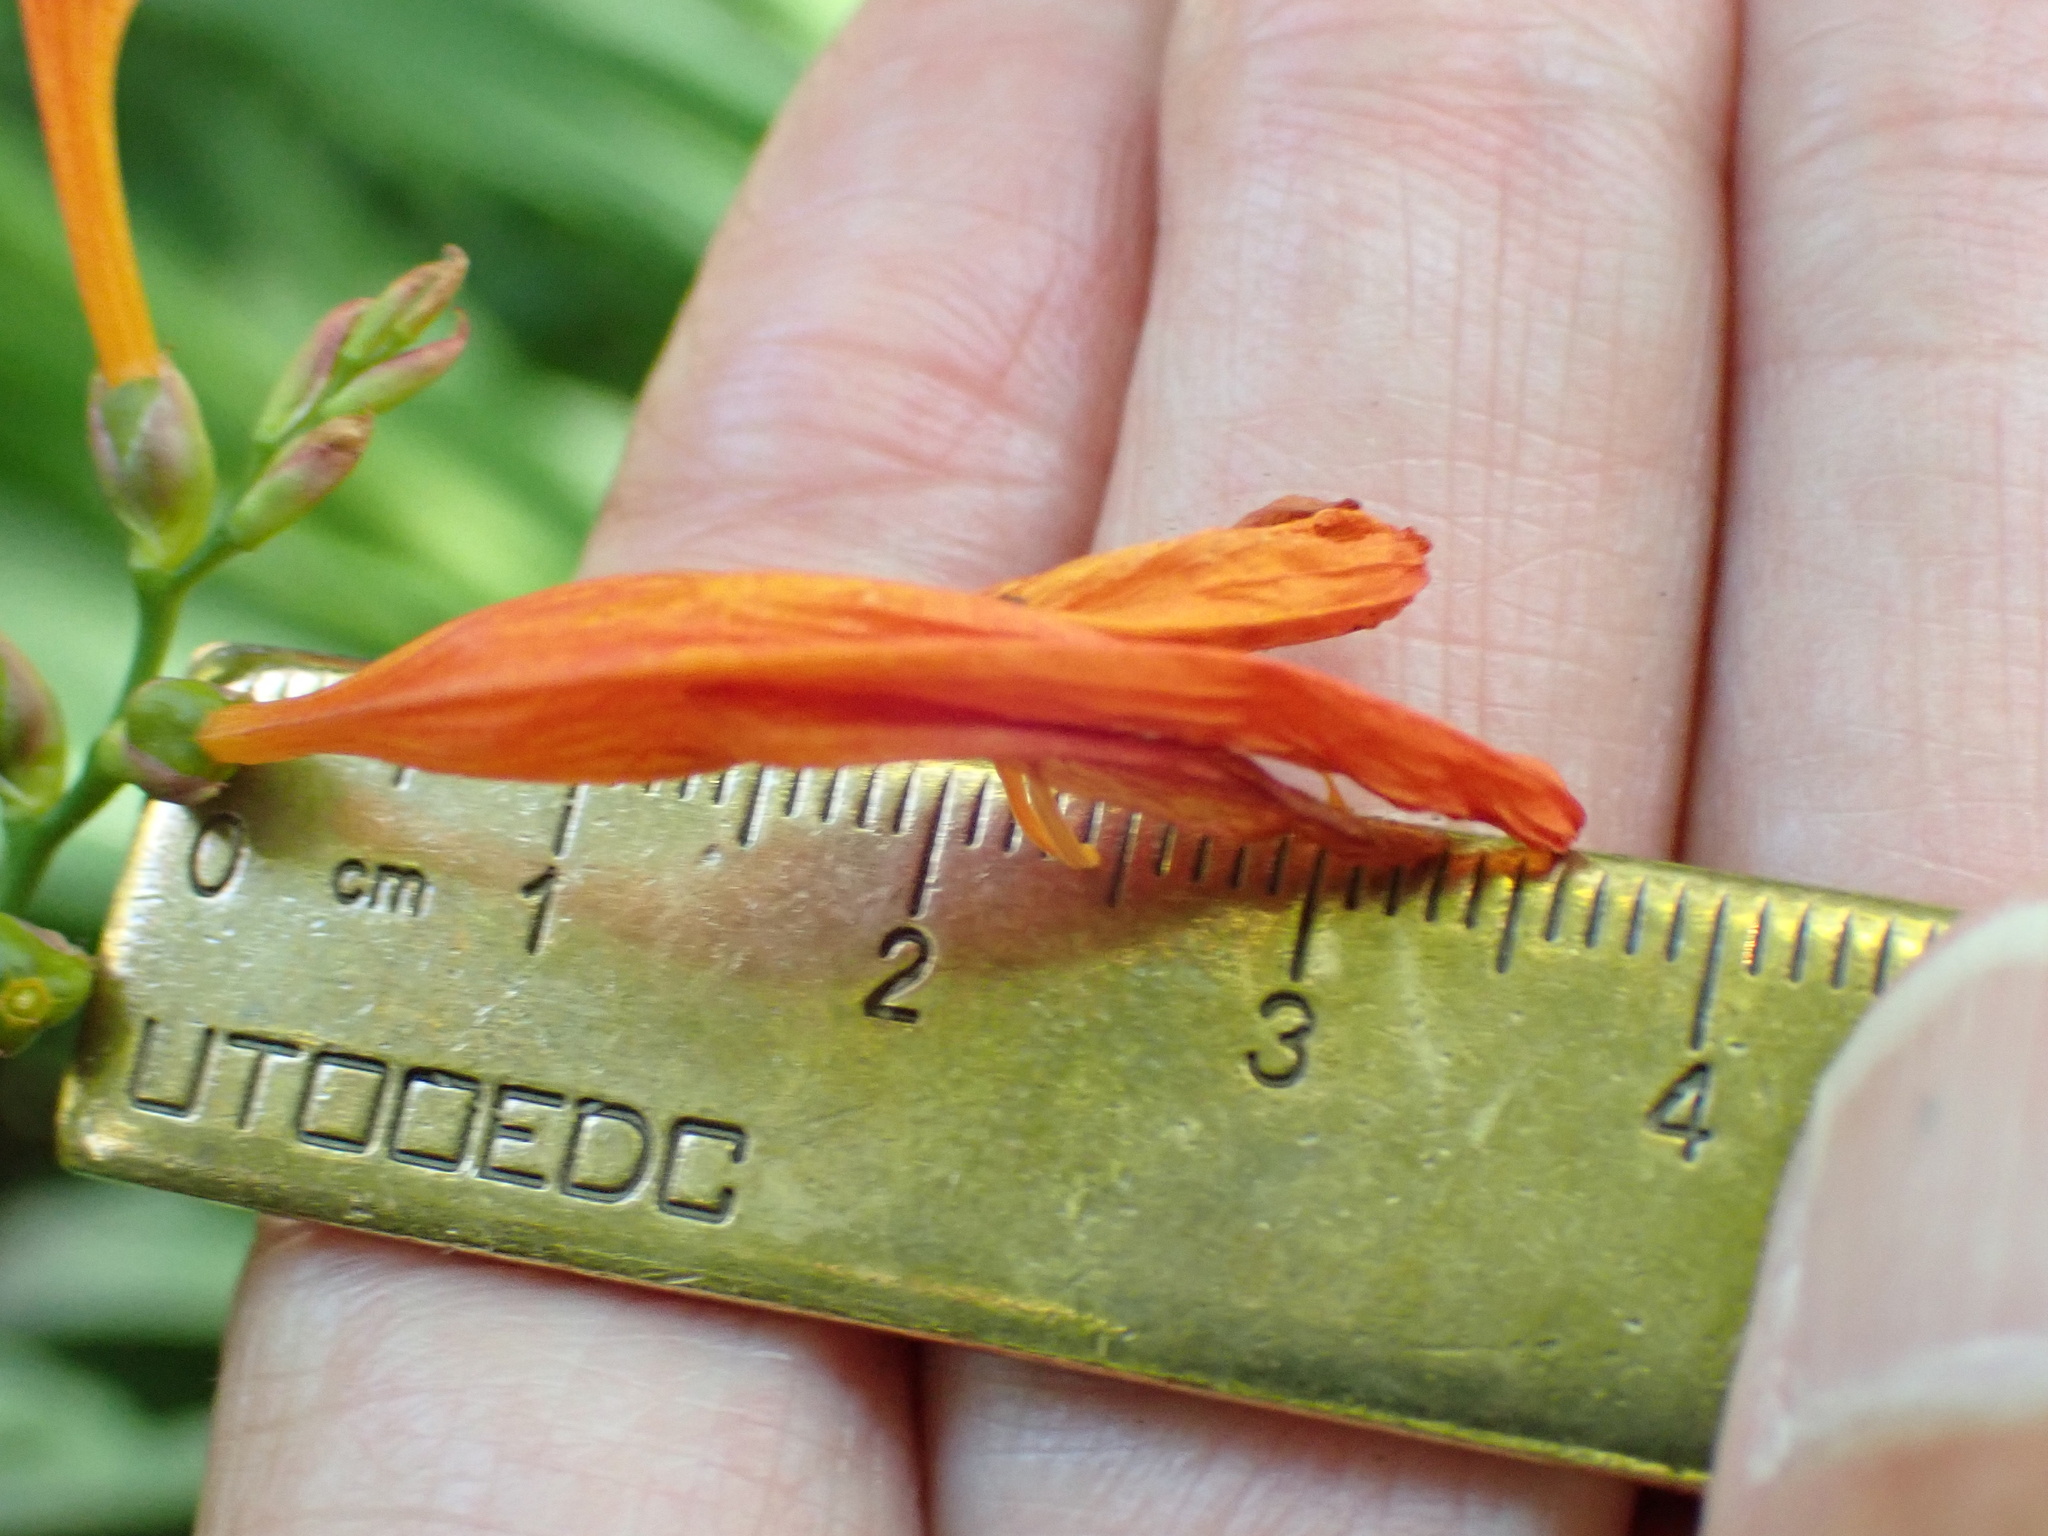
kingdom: Plantae
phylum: Tracheophyta
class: Liliopsida
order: Asparagales
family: Iridaceae
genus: Crocosmia
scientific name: Crocosmia crocosmiiflora
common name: Montbretia
